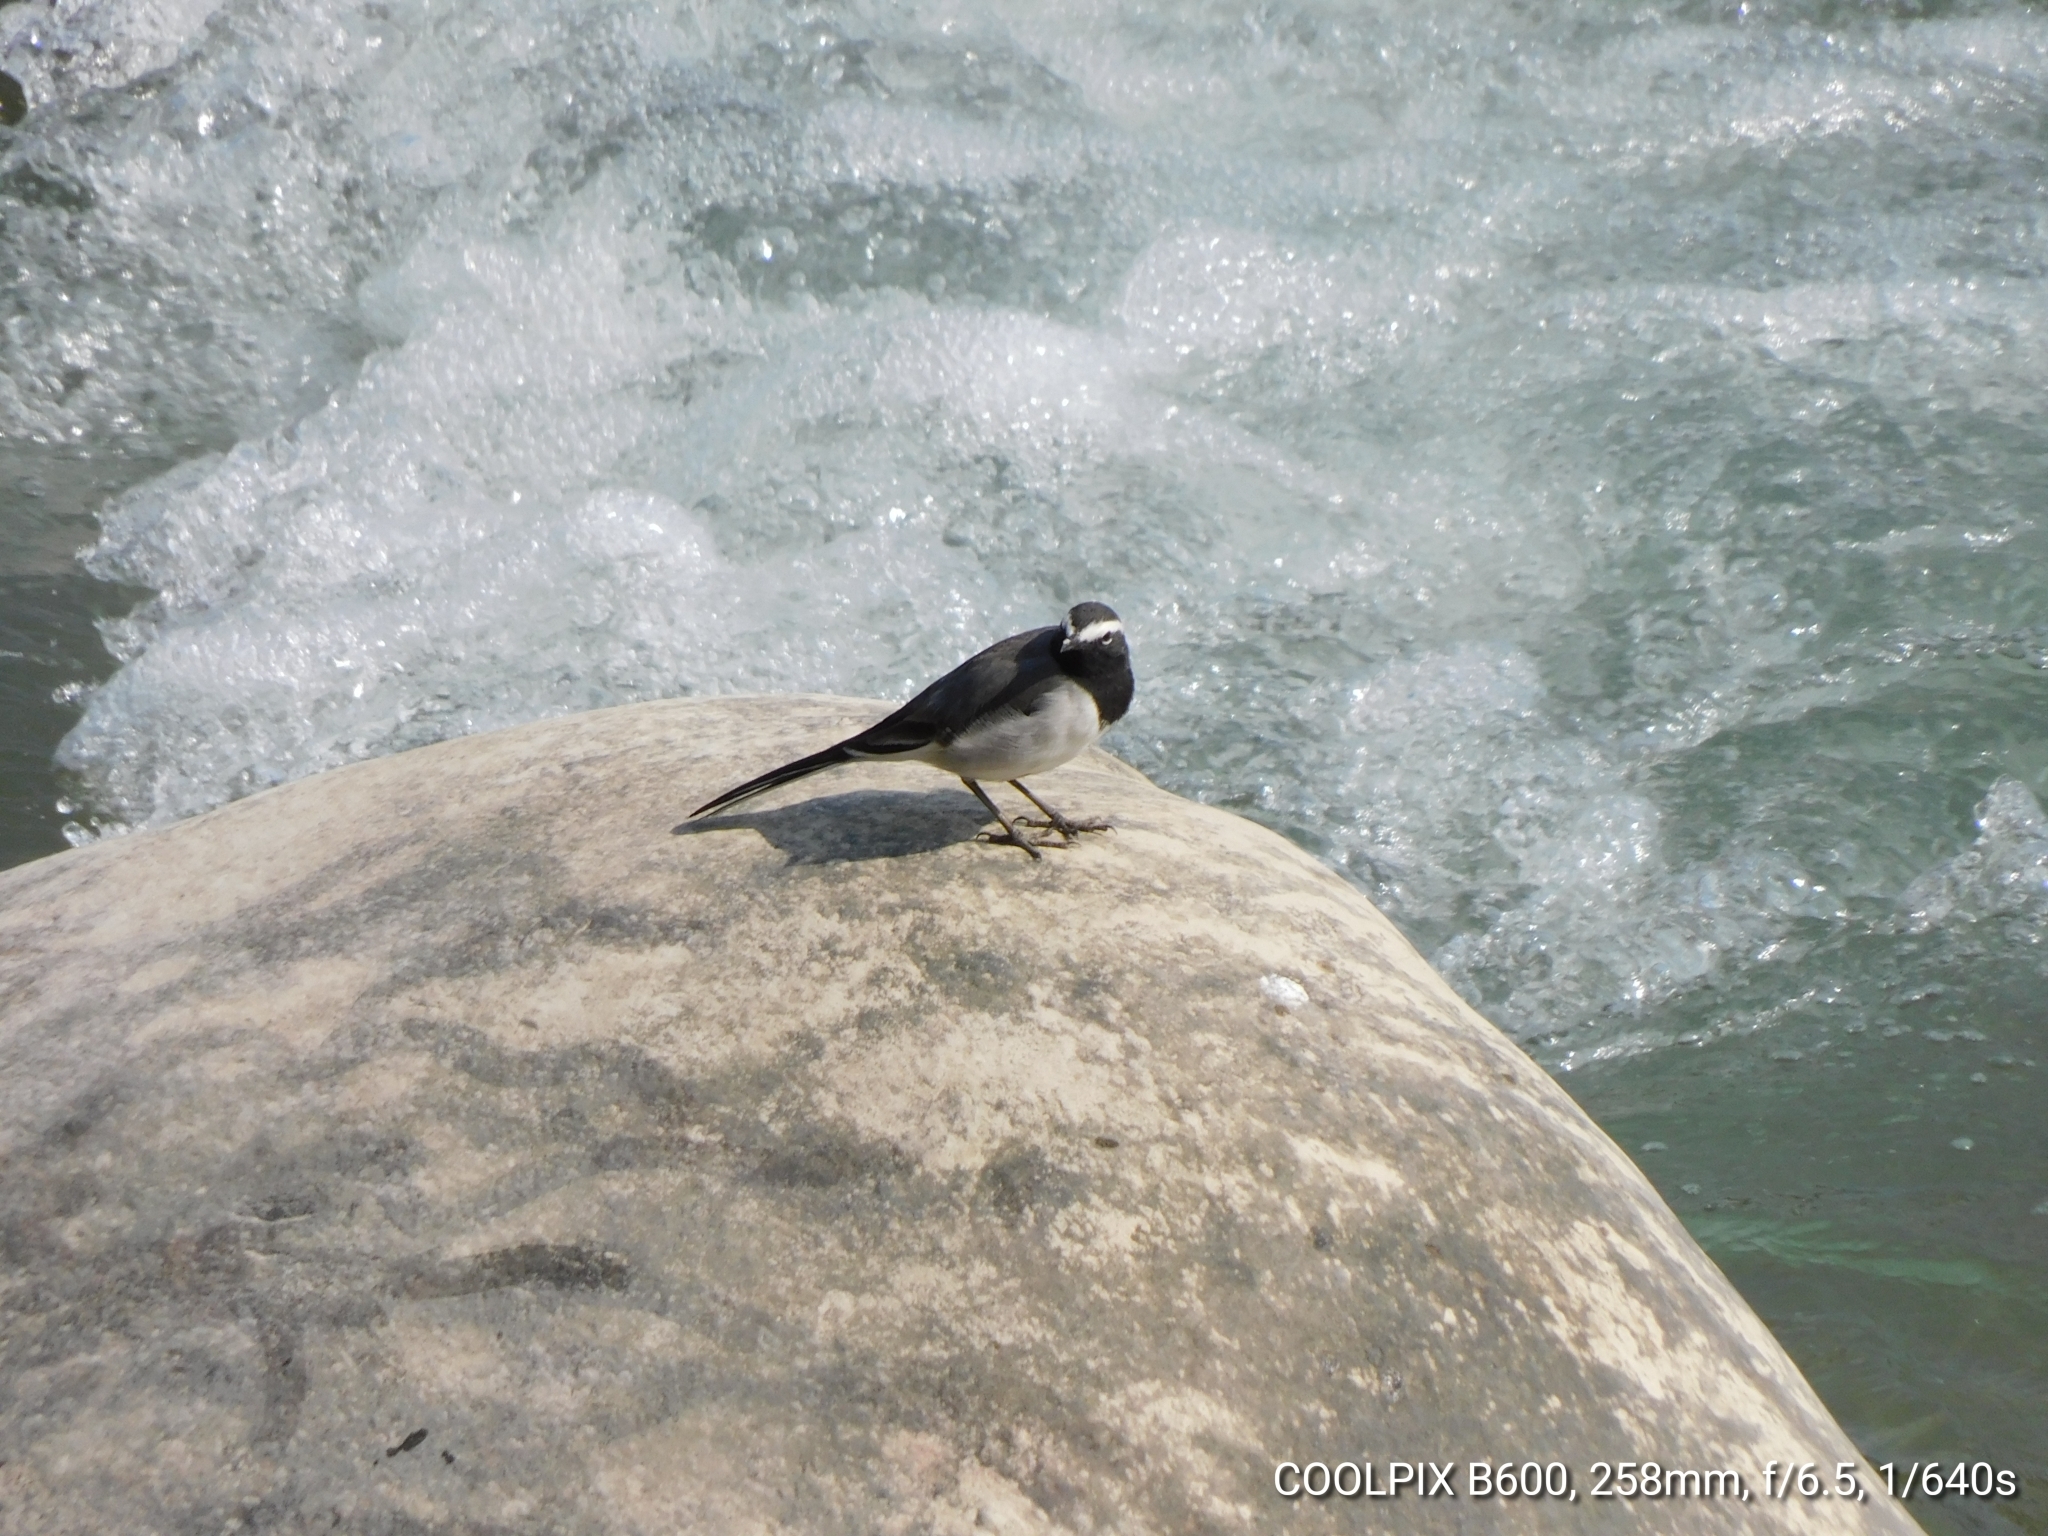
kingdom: Animalia
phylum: Chordata
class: Aves
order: Passeriformes
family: Motacillidae
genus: Motacilla
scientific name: Motacilla maderaspatensis
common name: White-browed wagtail
